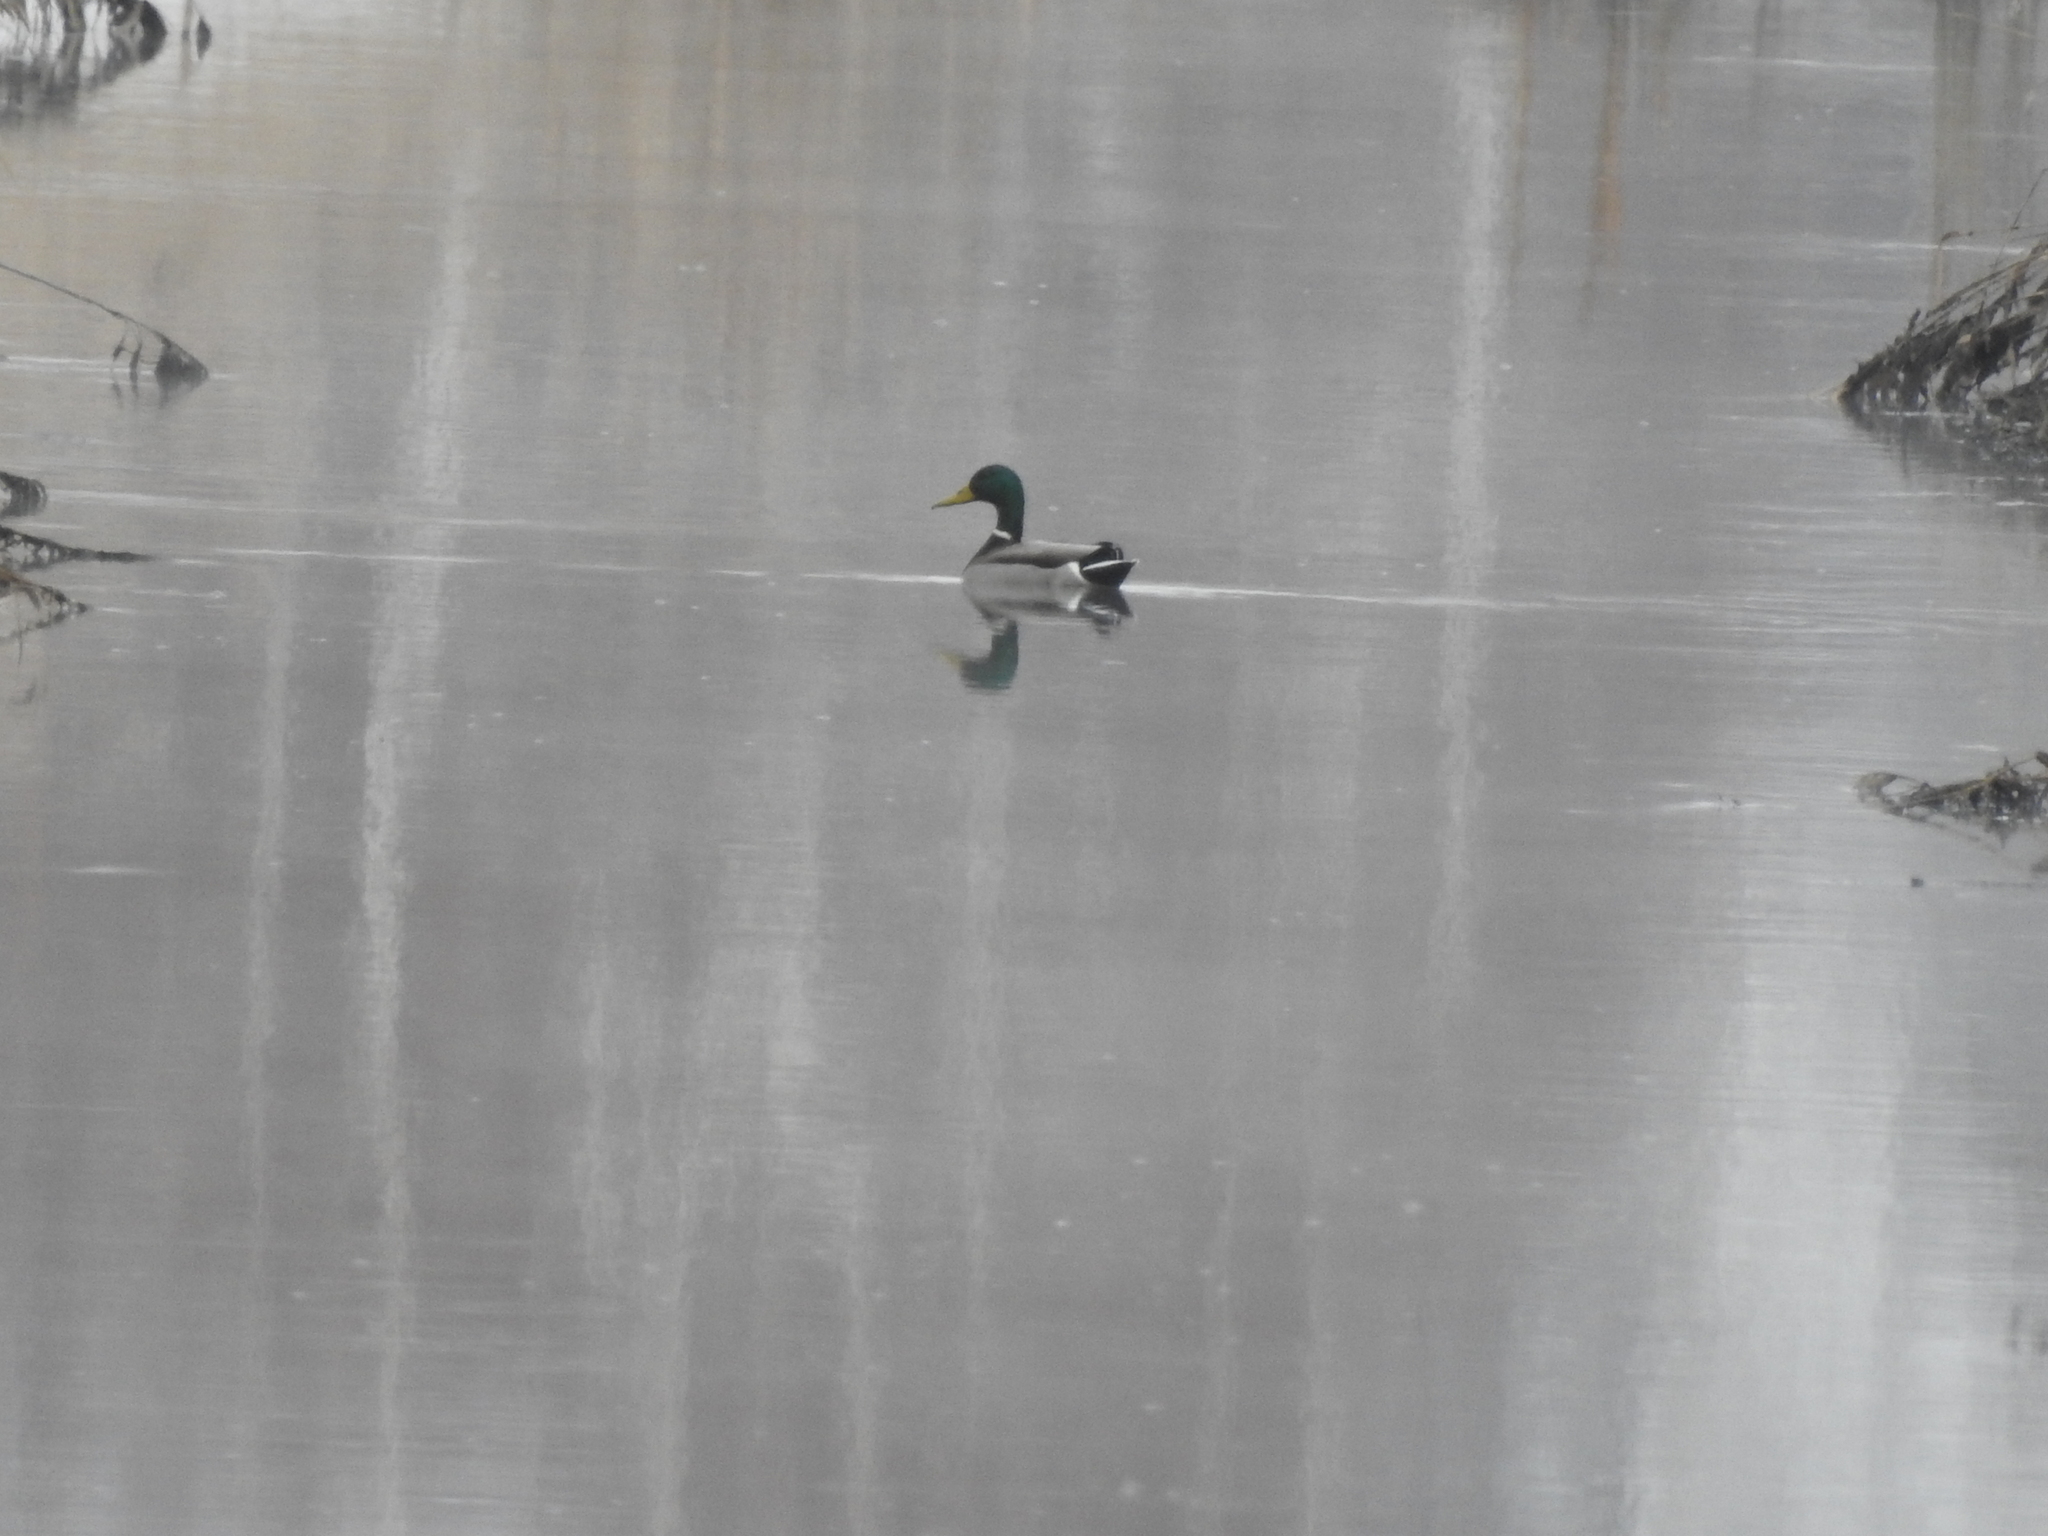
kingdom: Animalia
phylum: Chordata
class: Aves
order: Anseriformes
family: Anatidae
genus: Anas
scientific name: Anas platyrhynchos
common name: Mallard
